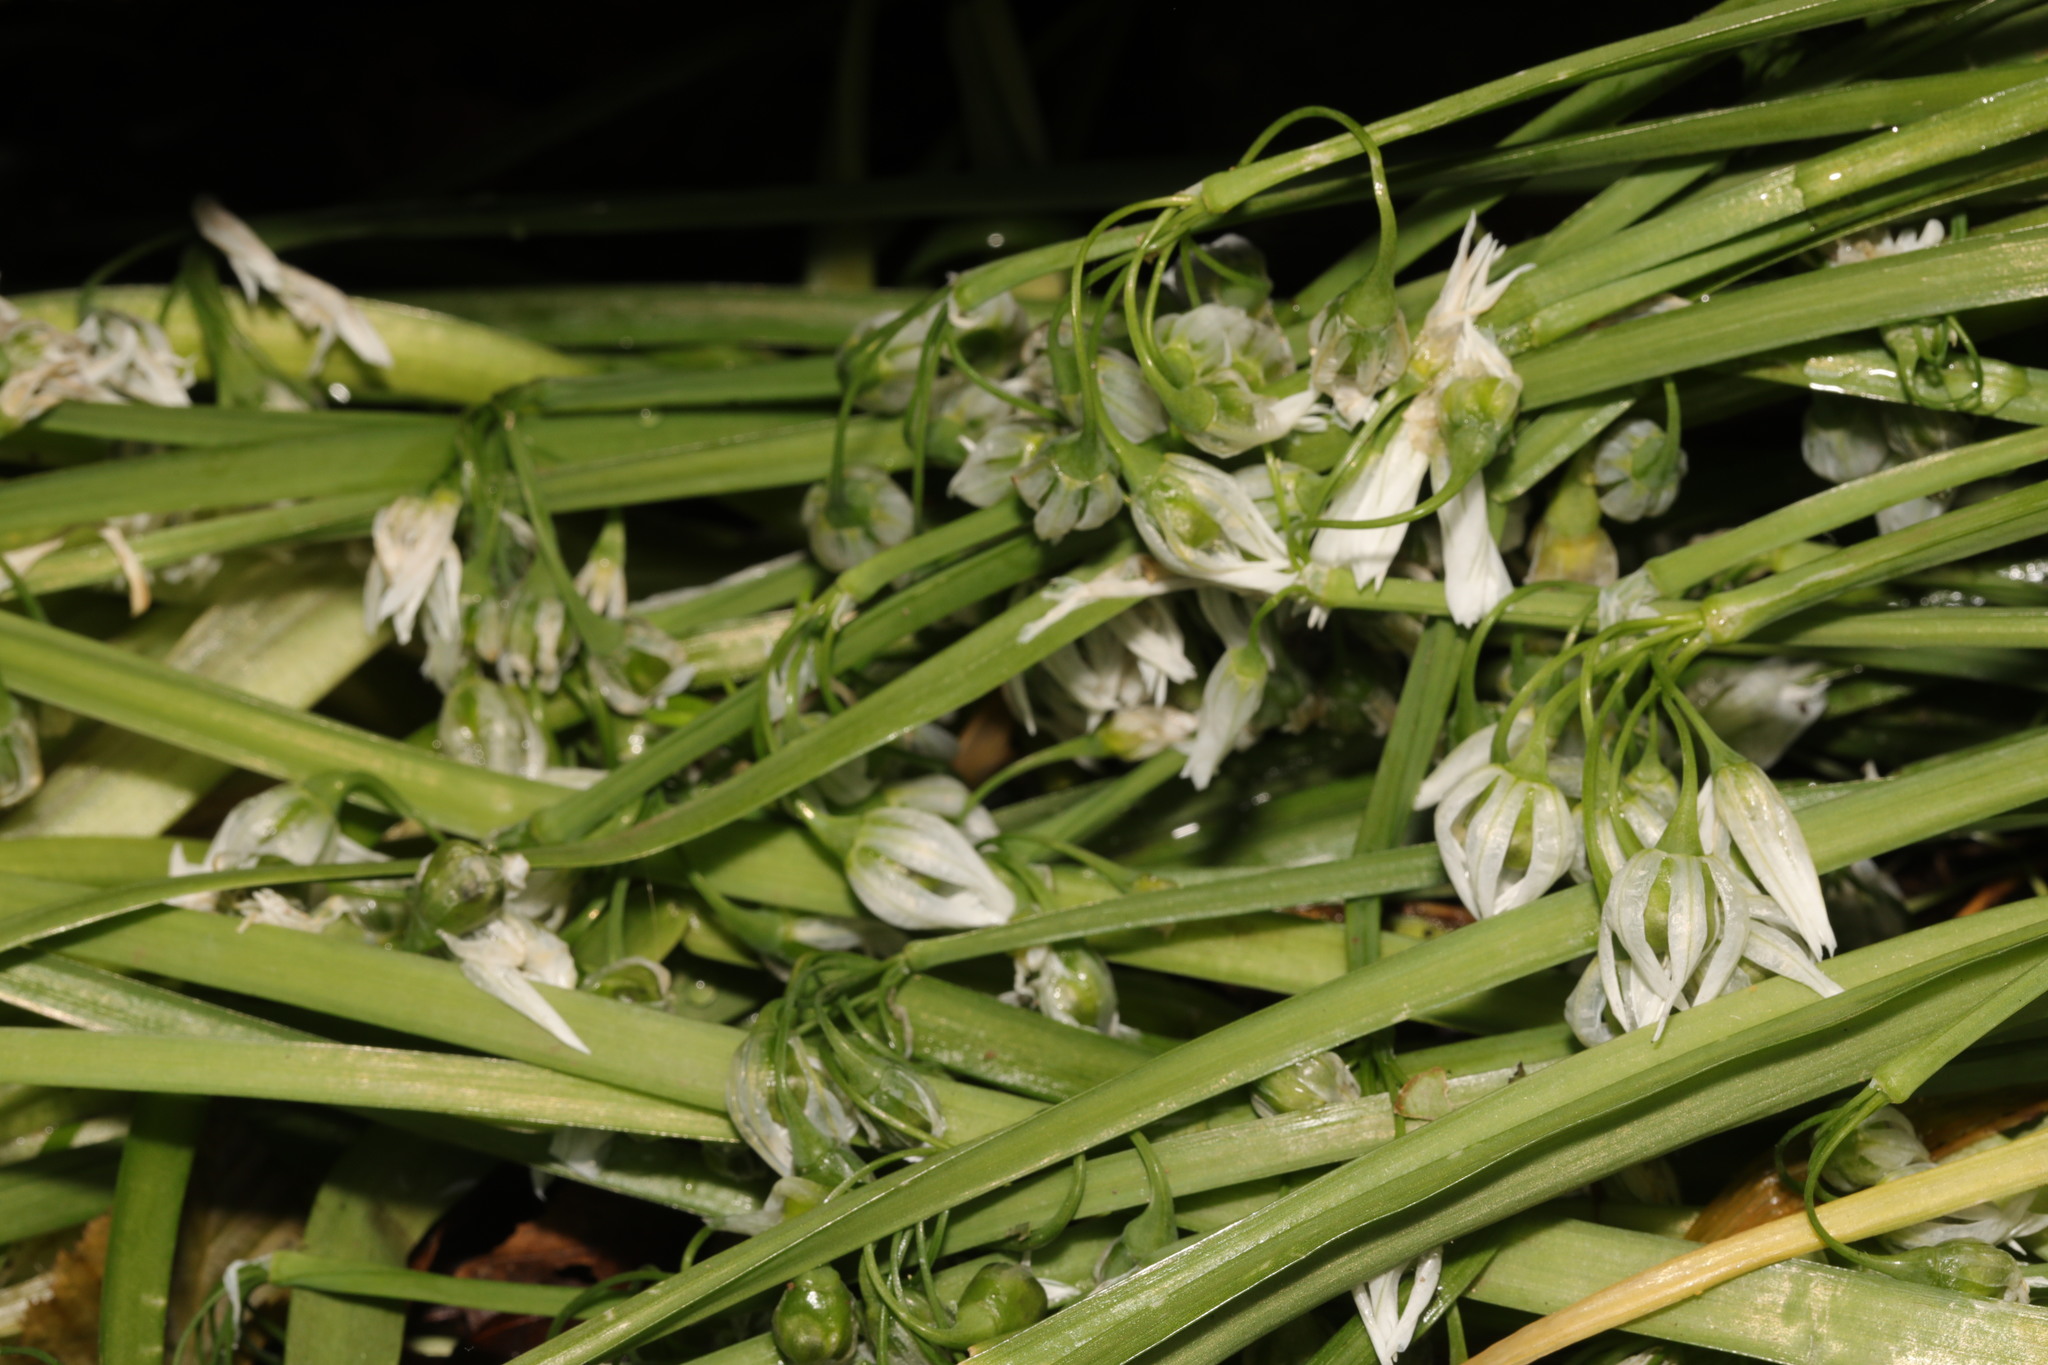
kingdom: Plantae
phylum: Tracheophyta
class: Liliopsida
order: Asparagales
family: Amaryllidaceae
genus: Allium
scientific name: Allium triquetrum
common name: Three-cornered garlic
